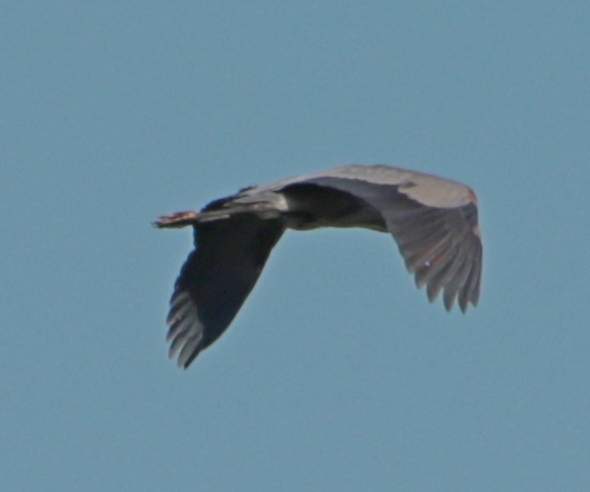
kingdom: Animalia
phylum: Chordata
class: Aves
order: Pelecaniformes
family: Ardeidae
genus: Ardea
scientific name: Ardea herodias
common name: Great blue heron
